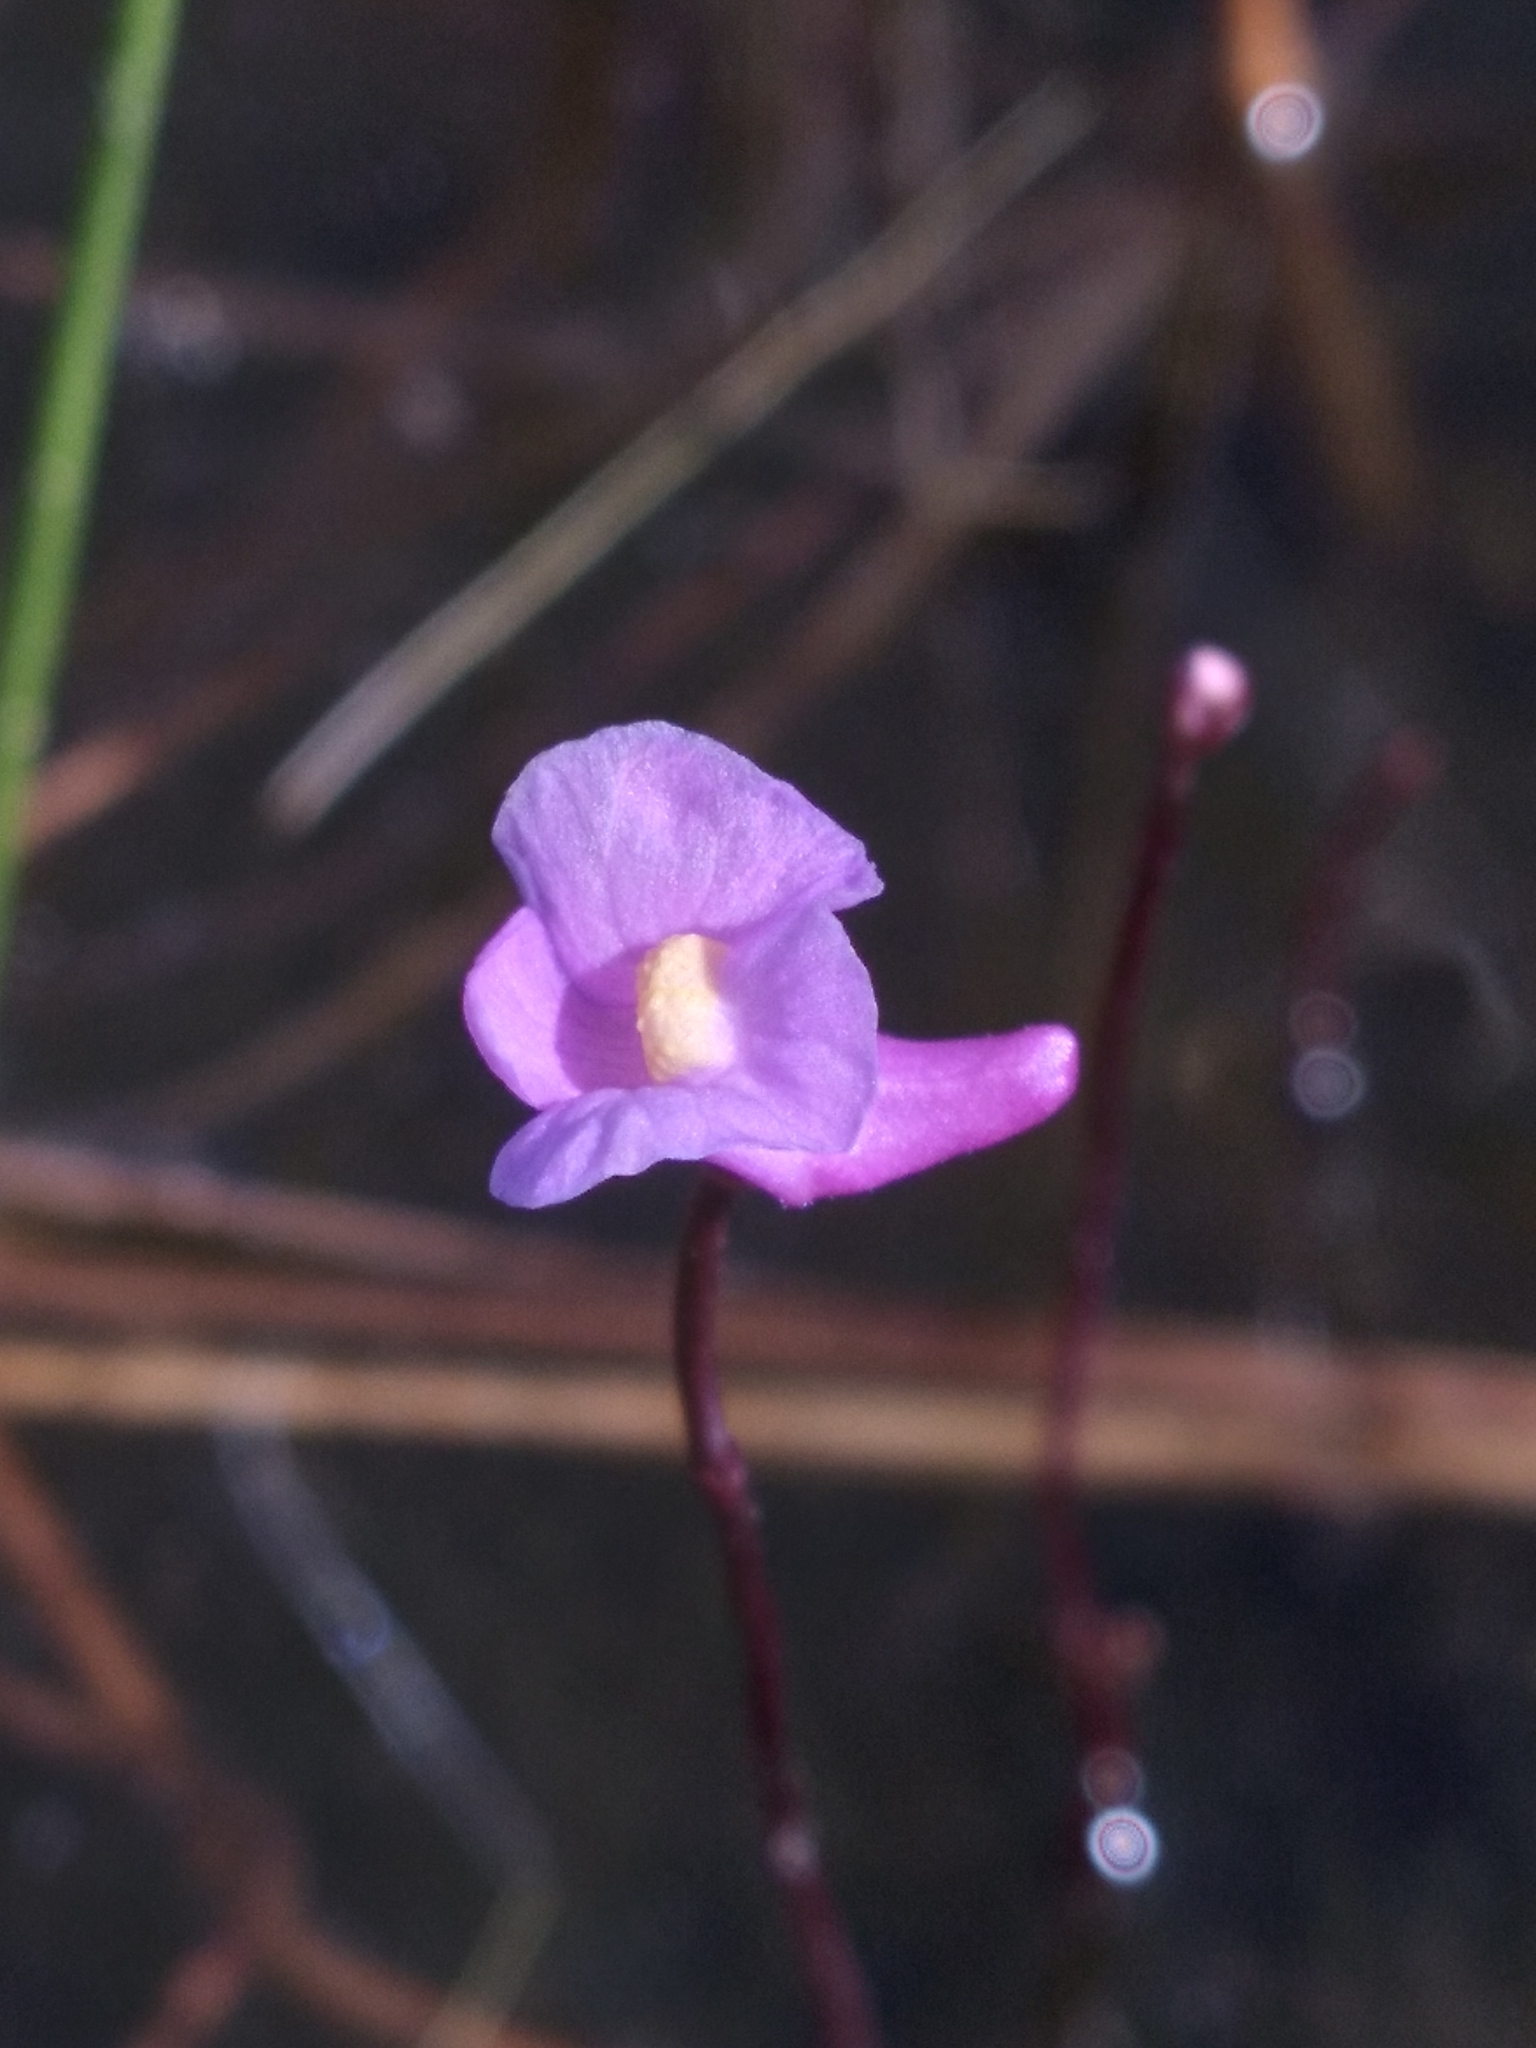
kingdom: Plantae
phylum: Tracheophyta
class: Magnoliopsida
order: Lamiales
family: Lentibulariaceae
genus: Utricularia
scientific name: Utricularia resupinata
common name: Northeastern bladderwort
